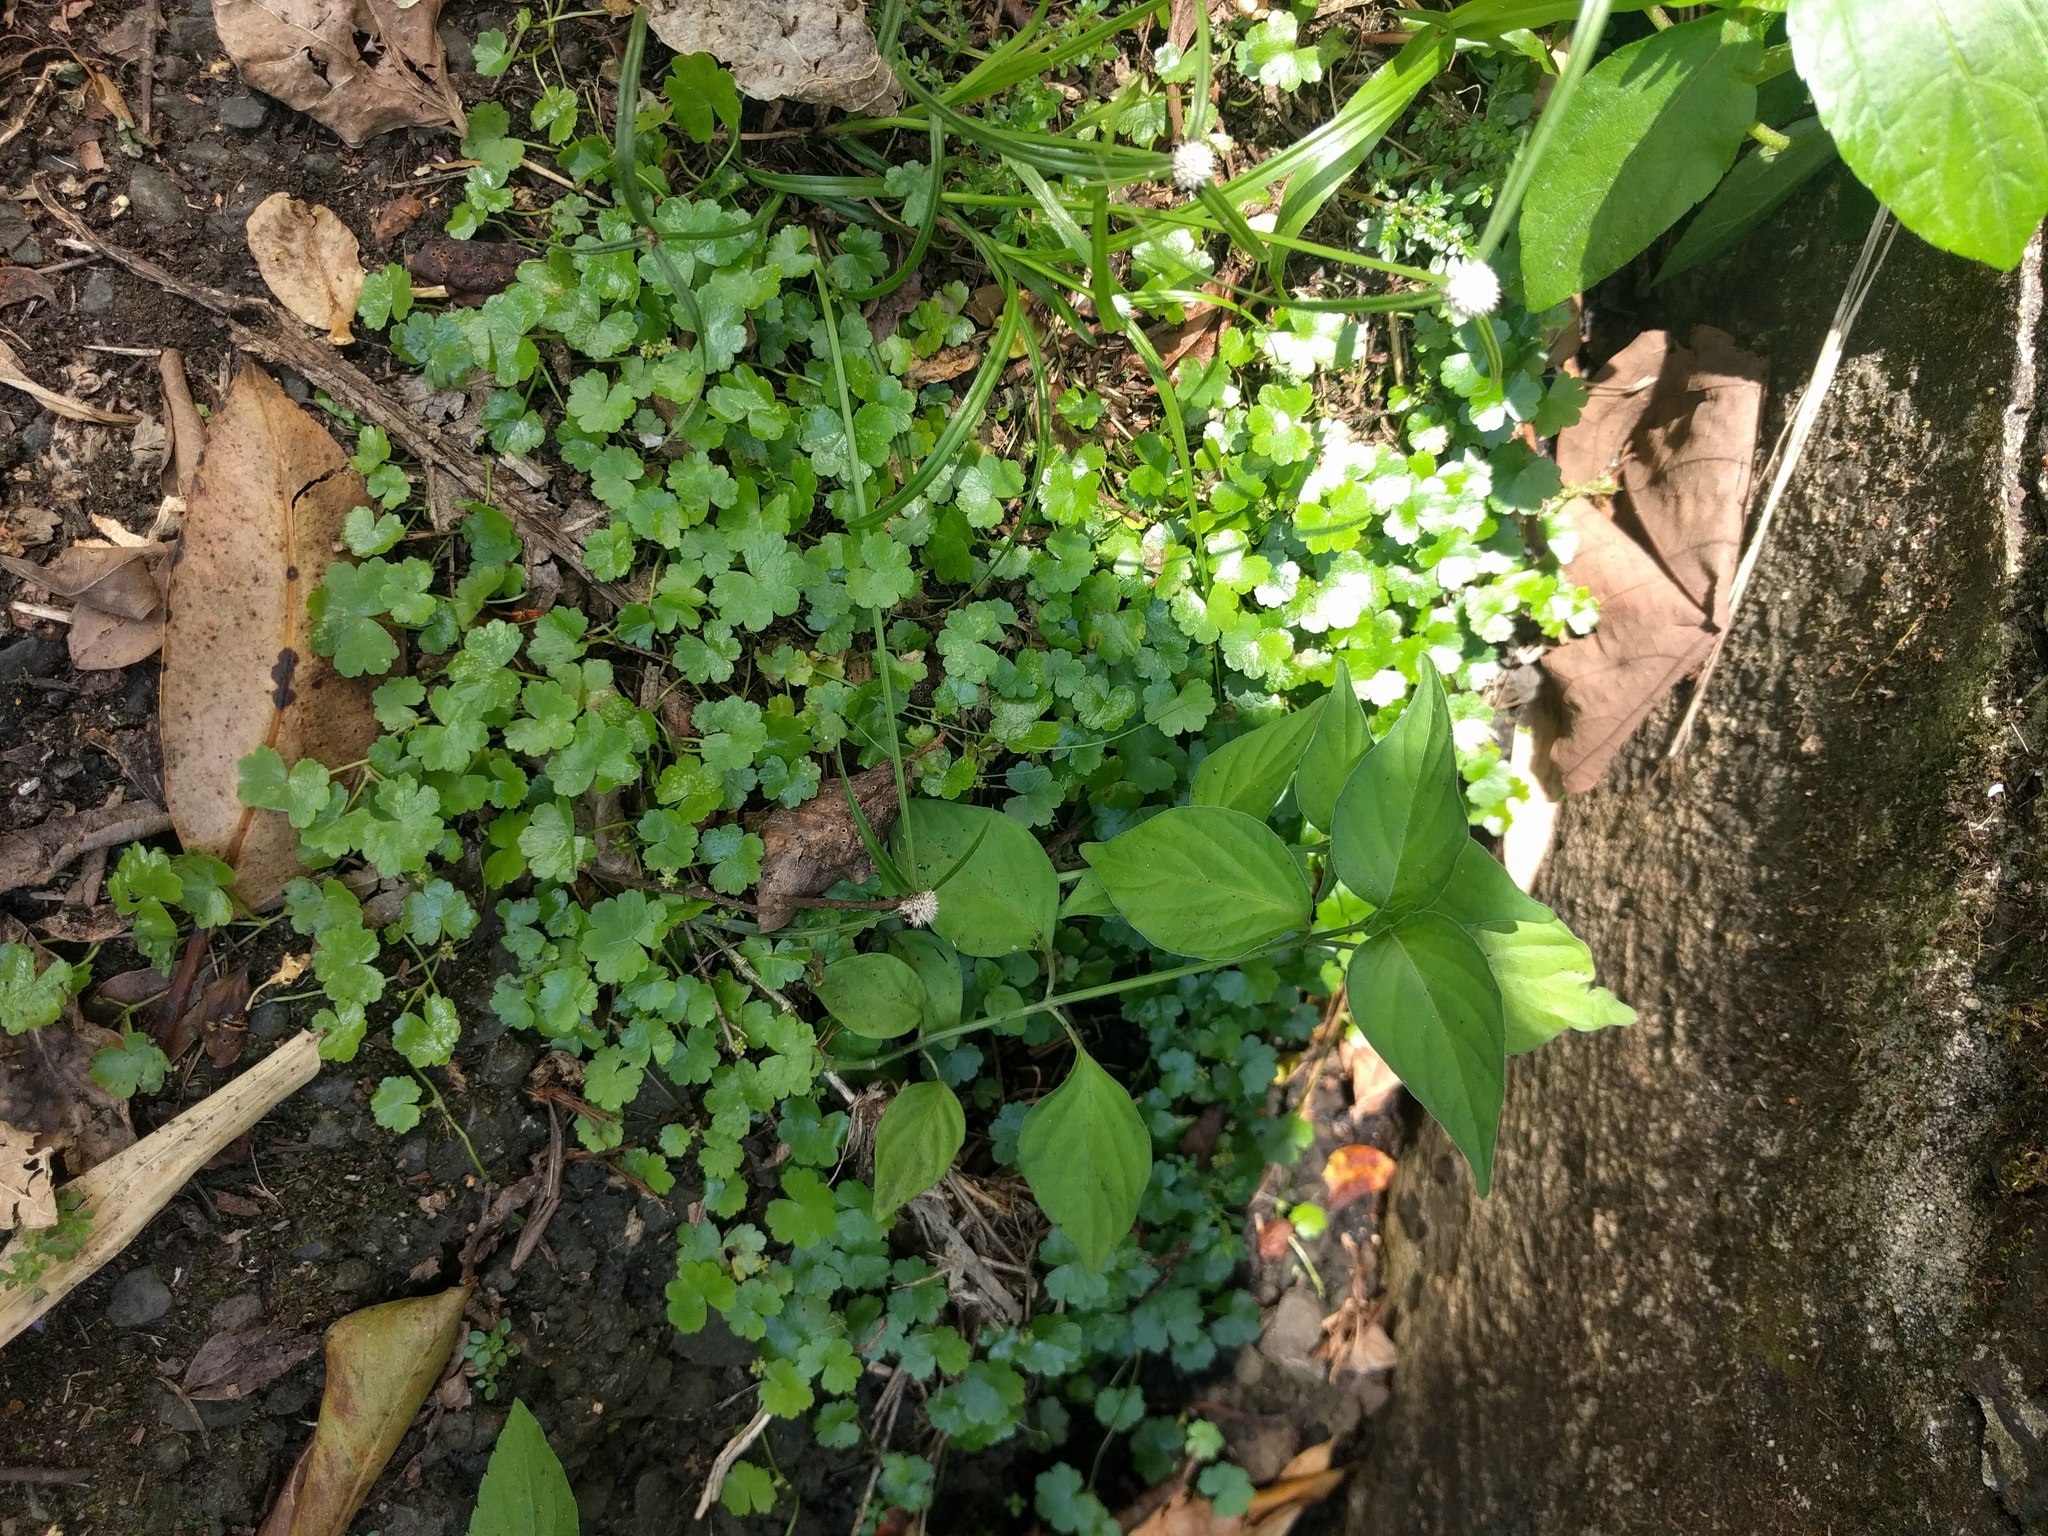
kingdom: Plantae
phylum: Tracheophyta
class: Magnoliopsida
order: Apiales
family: Araliaceae
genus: Hydrocotyle
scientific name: Hydrocotyle sibthorpioides
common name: Lawn marshpennywort
